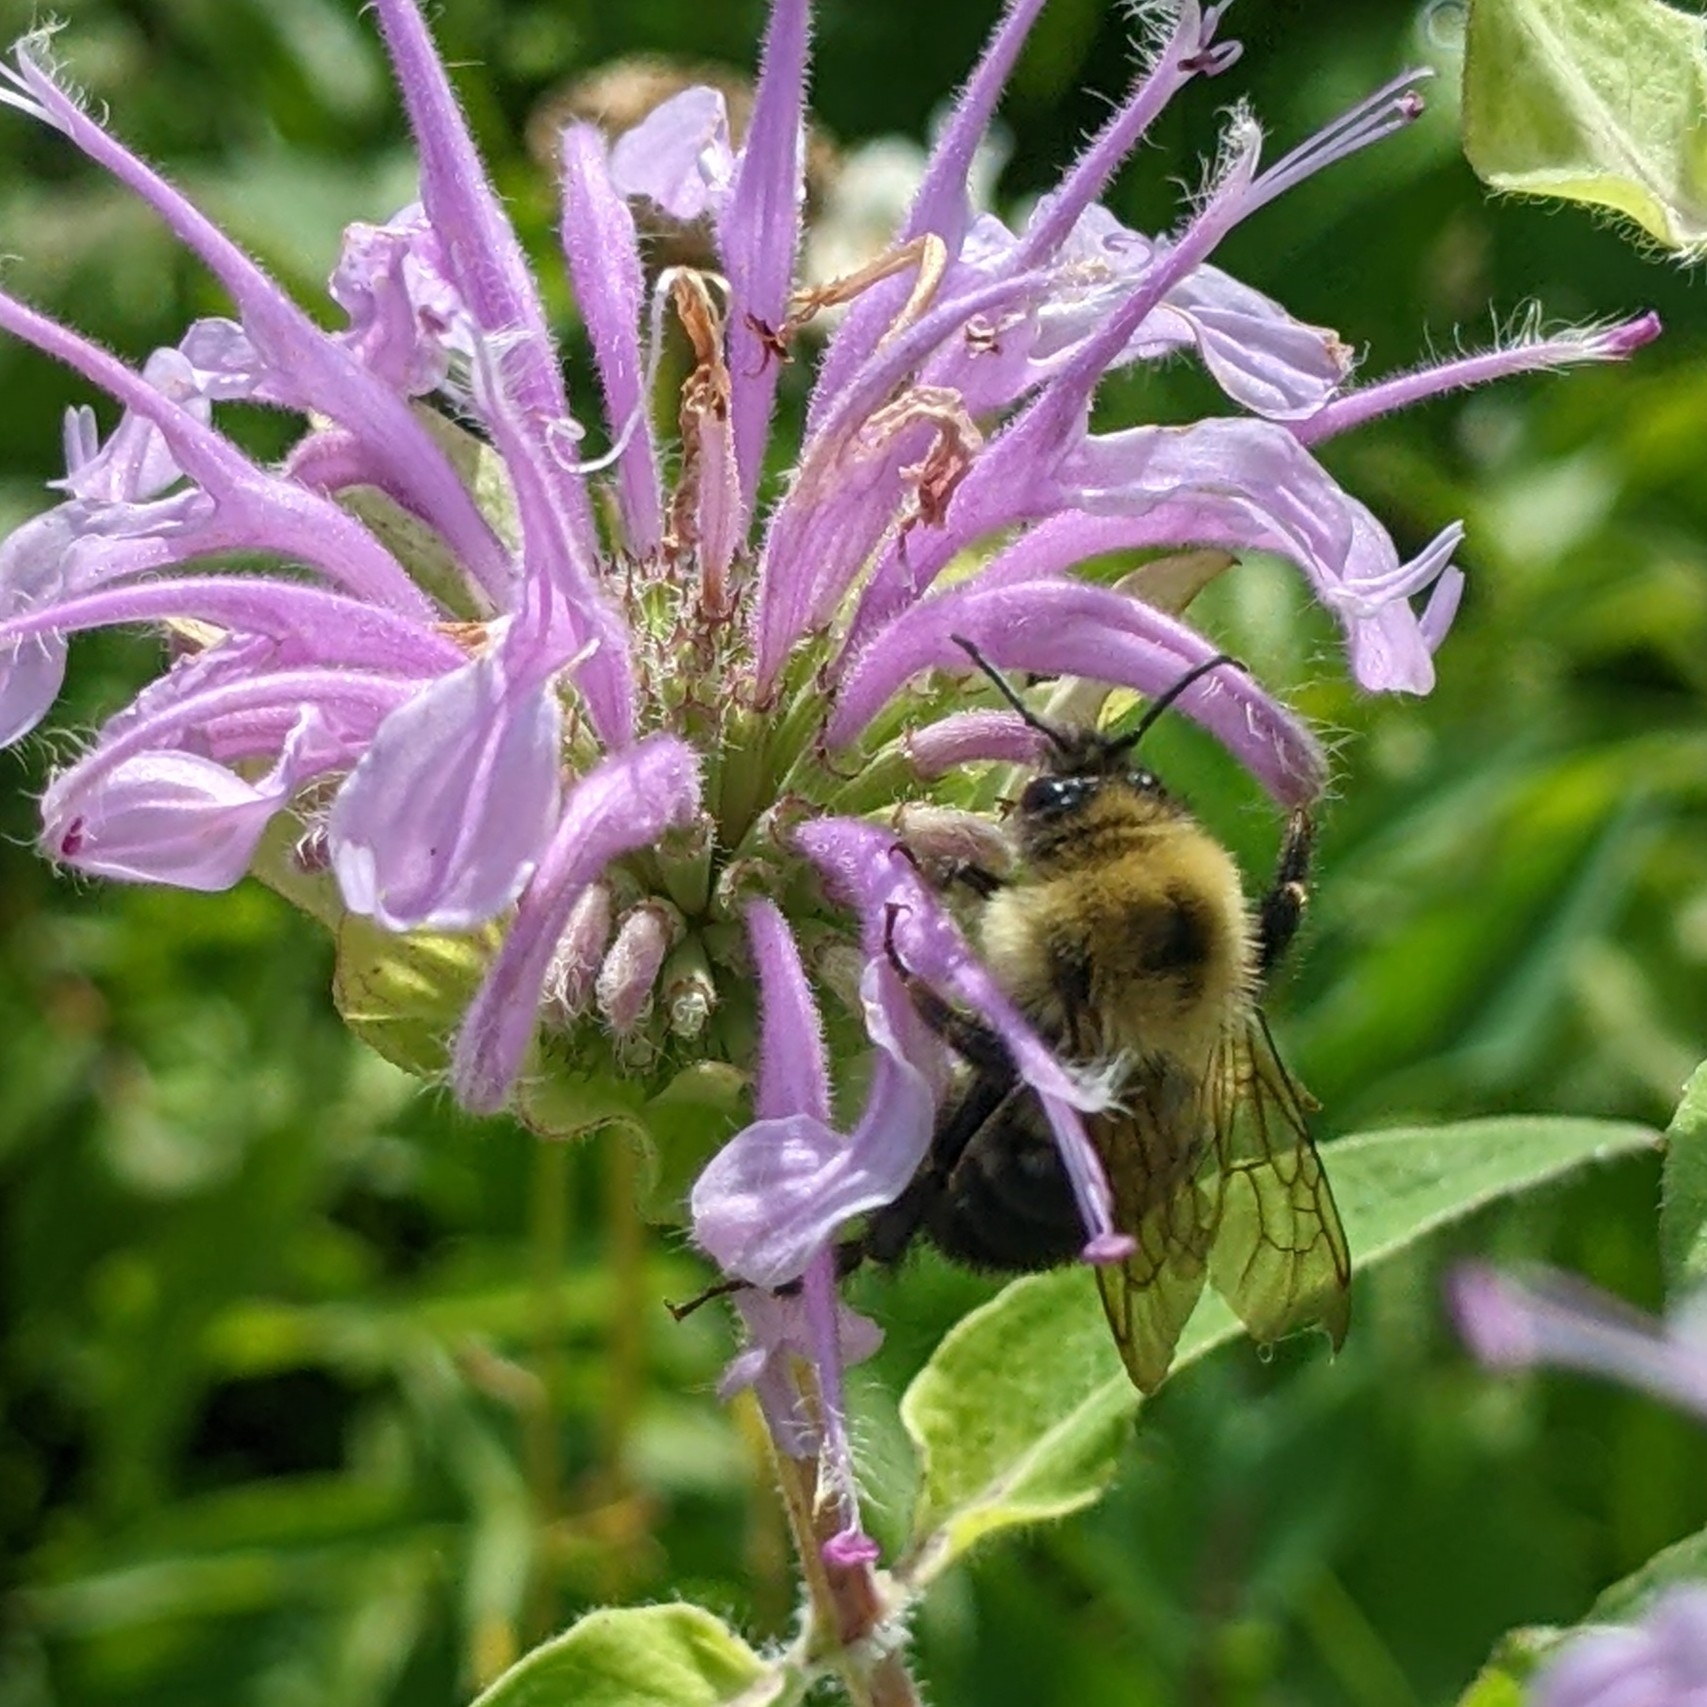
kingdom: Animalia
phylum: Arthropoda
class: Insecta
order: Hymenoptera
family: Apidae
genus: Bombus
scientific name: Bombus bimaculatus
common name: Two-spotted bumble bee
